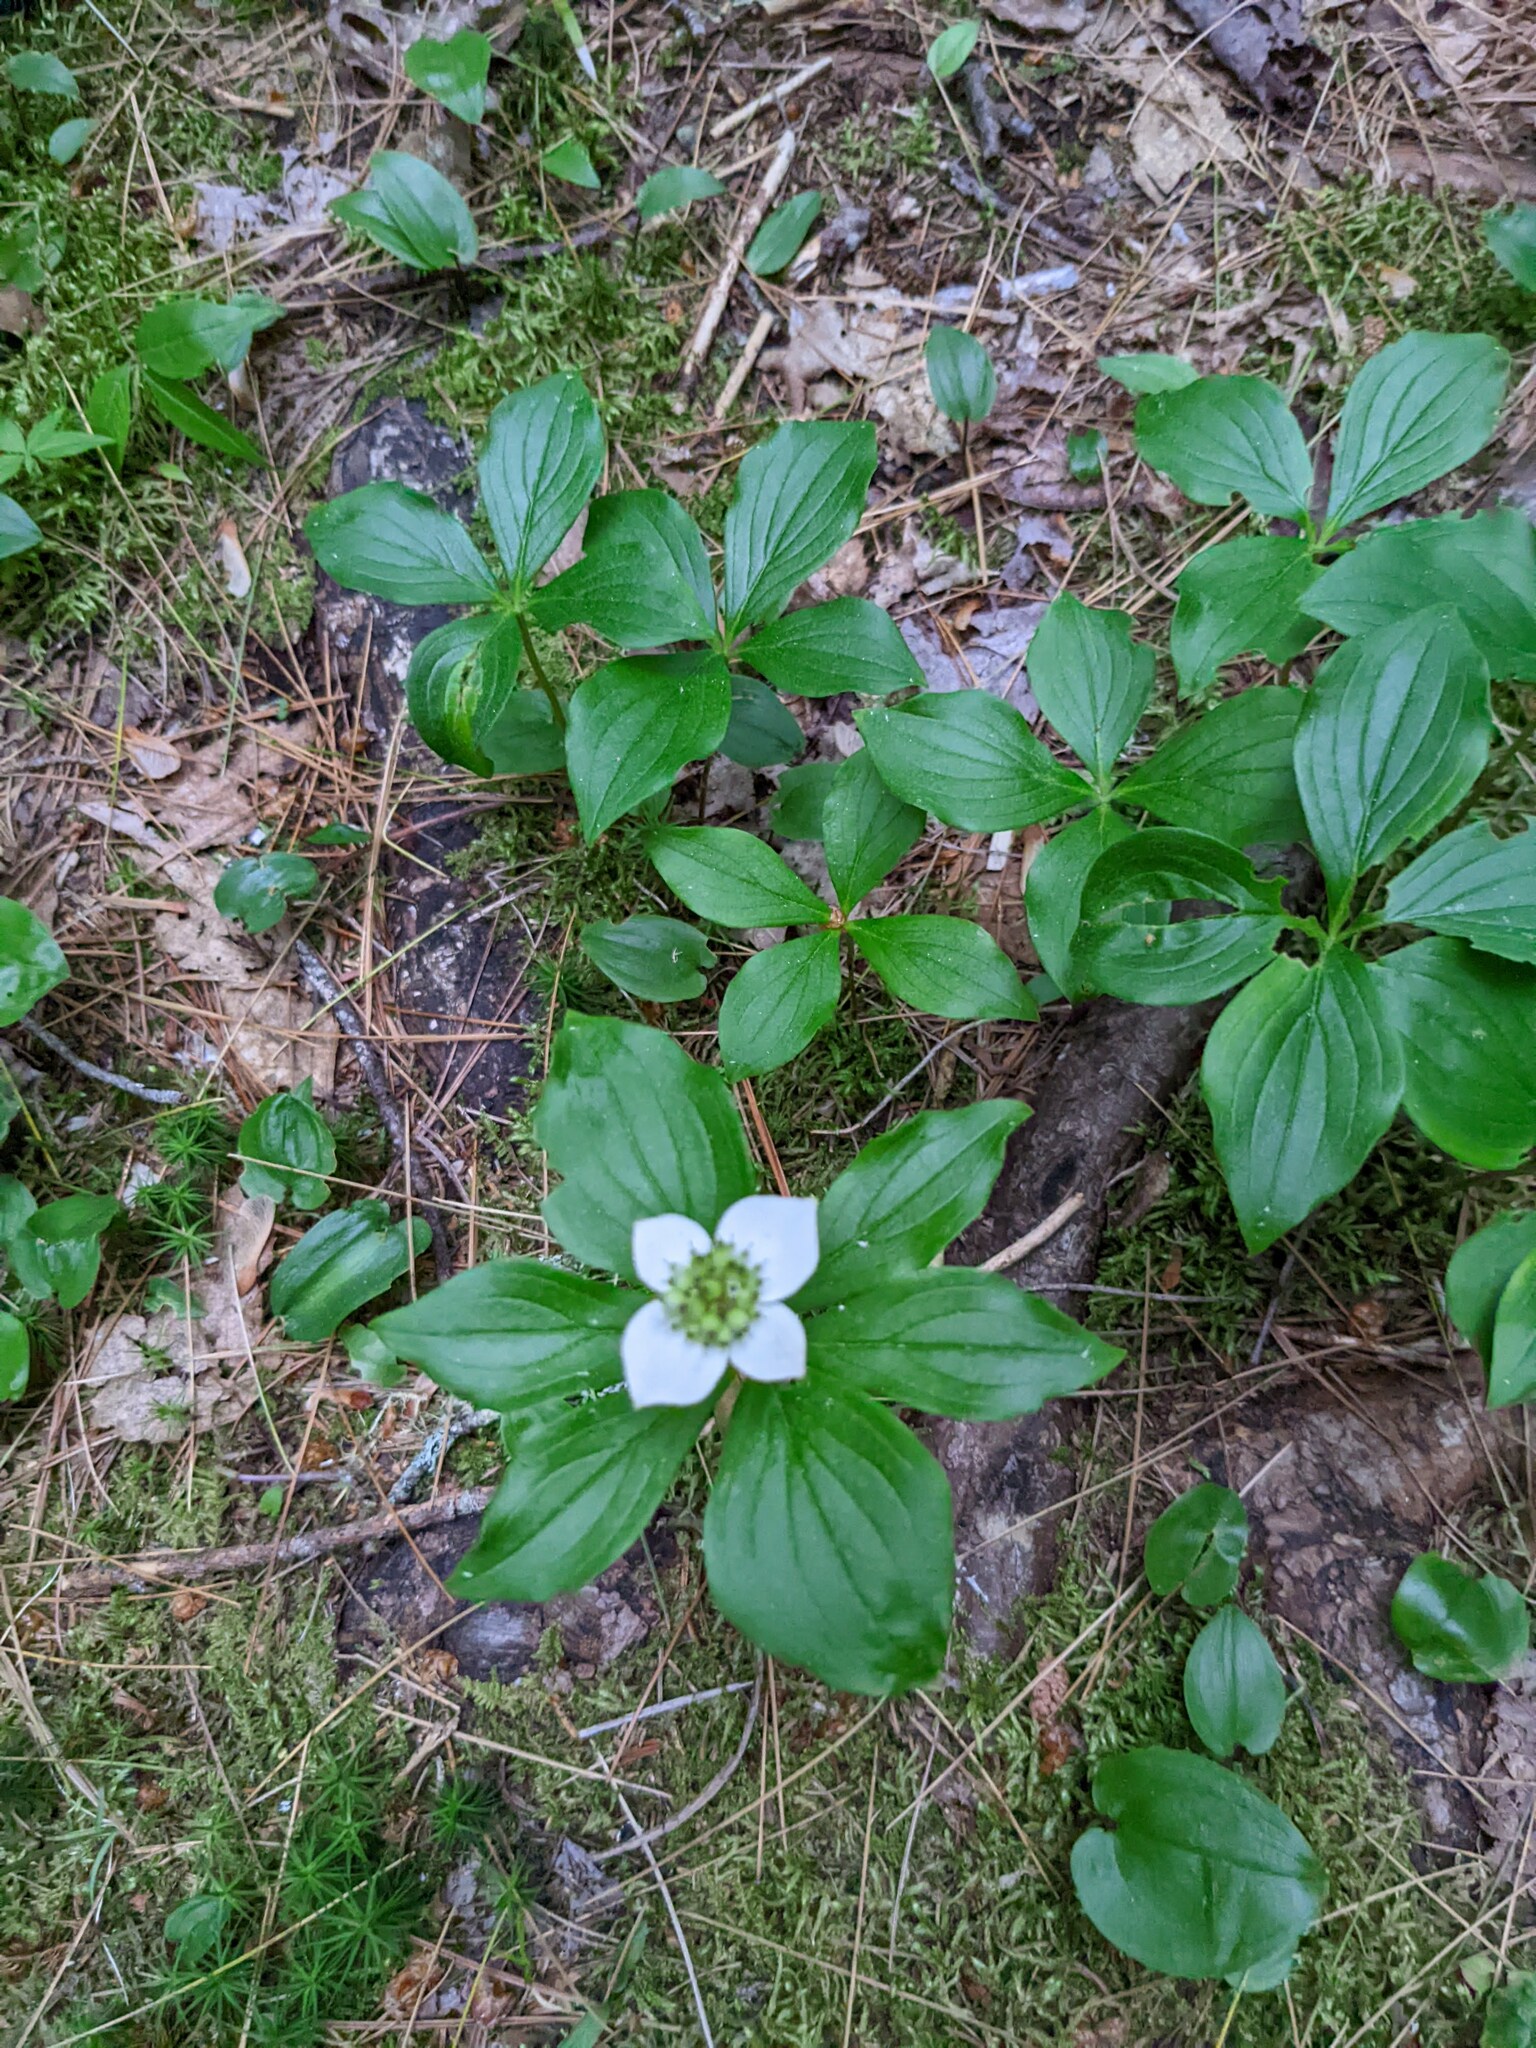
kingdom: Plantae
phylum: Tracheophyta
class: Magnoliopsida
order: Cornales
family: Cornaceae
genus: Cornus
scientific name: Cornus canadensis
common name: Creeping dogwood
